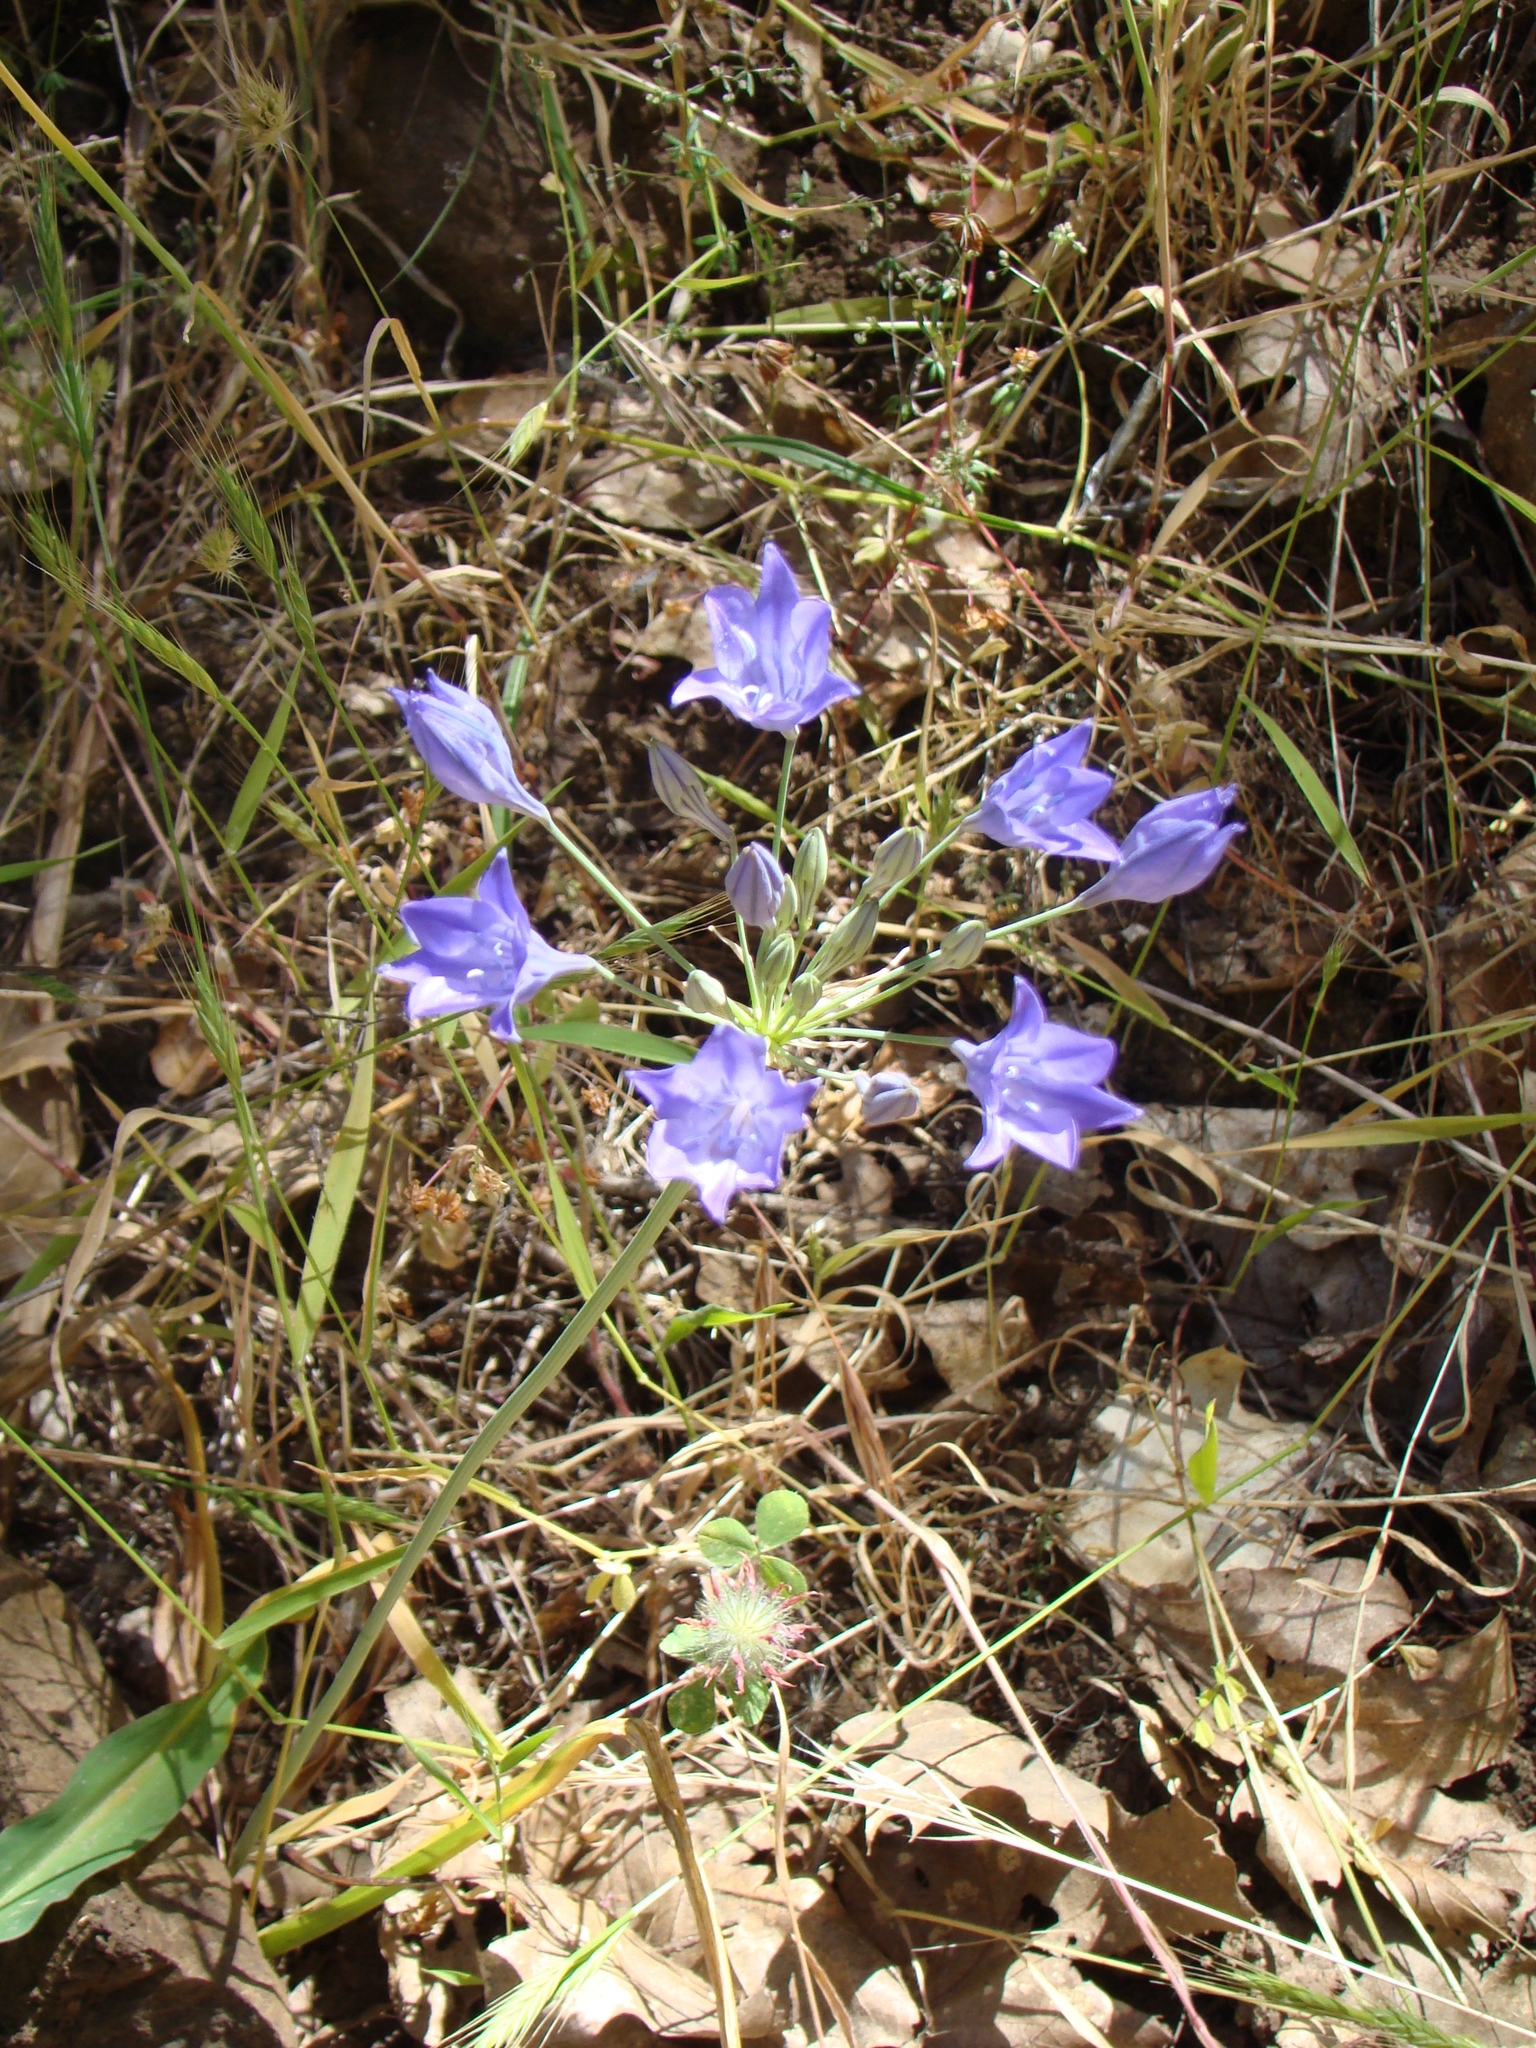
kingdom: Plantae
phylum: Tracheophyta
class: Liliopsida
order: Asparagales
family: Asparagaceae
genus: Triteleia
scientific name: Triteleia laxa
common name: Triplet-lily
